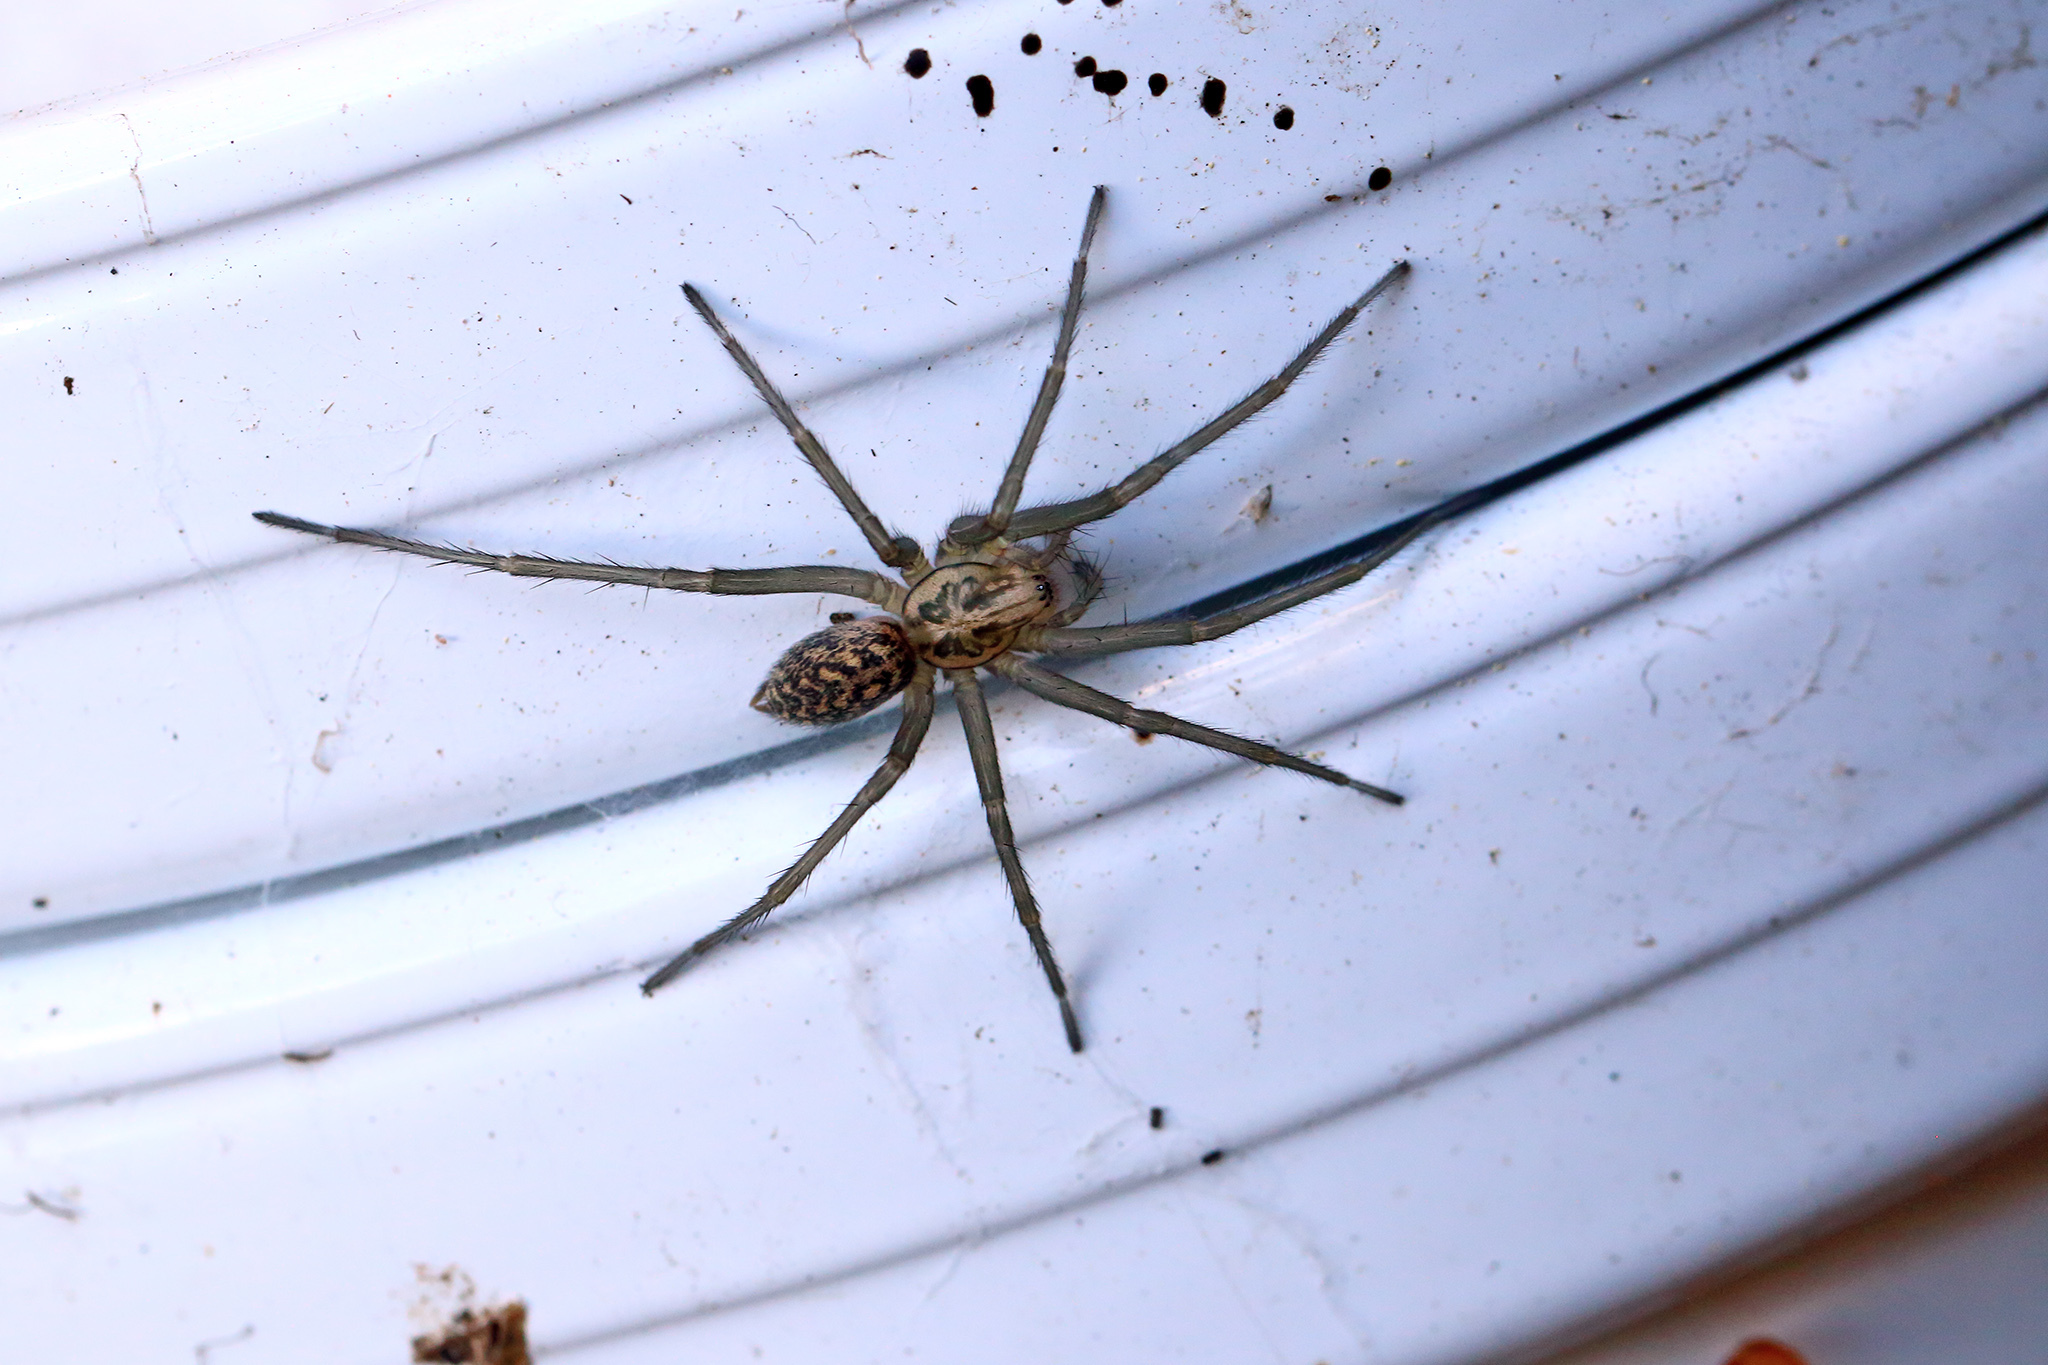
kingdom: Animalia
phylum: Arthropoda
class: Arachnida
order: Araneae
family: Agelenidae
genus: Eratigena
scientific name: Eratigena atrica
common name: Giant house spider
